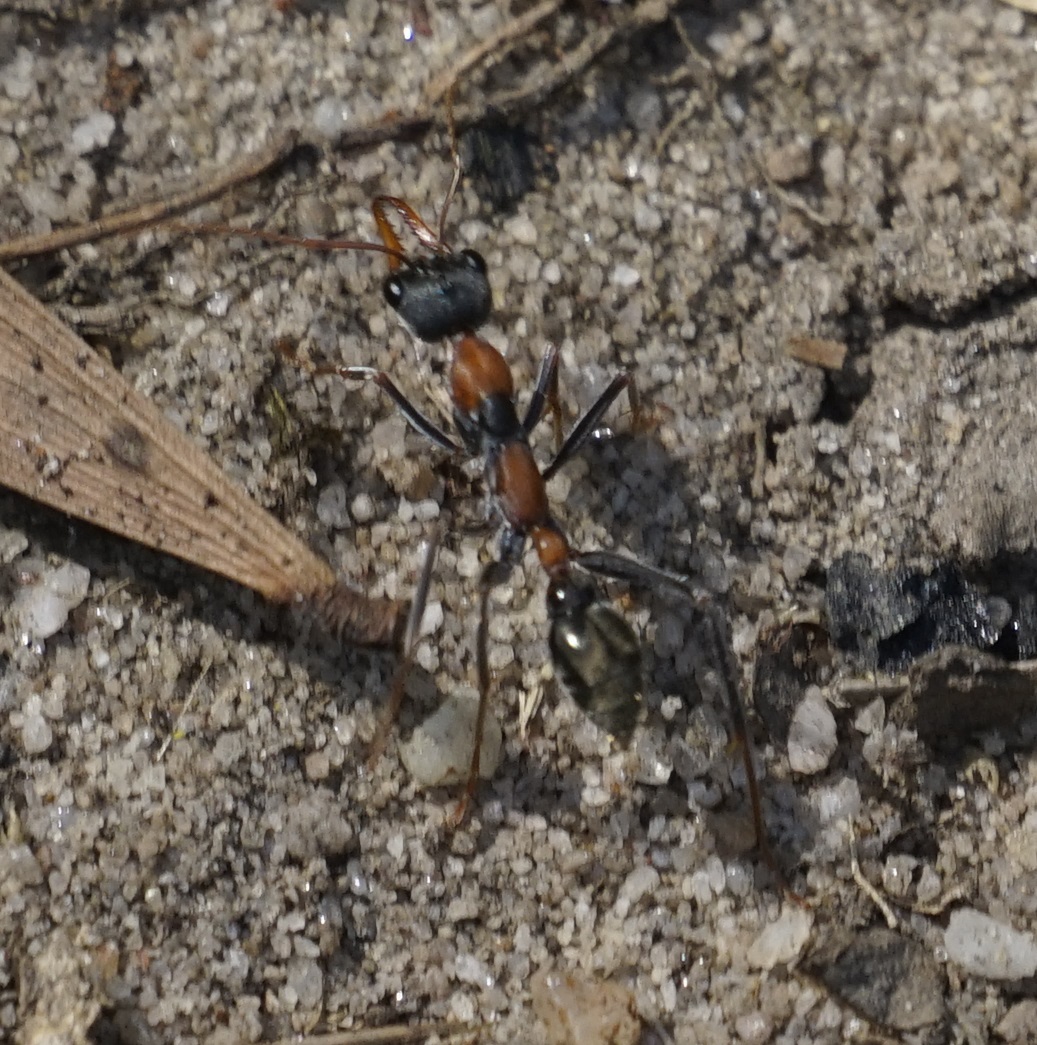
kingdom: Animalia
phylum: Arthropoda
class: Insecta
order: Hymenoptera
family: Formicidae
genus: Myrmecia
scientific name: Myrmecia nigrocincta
